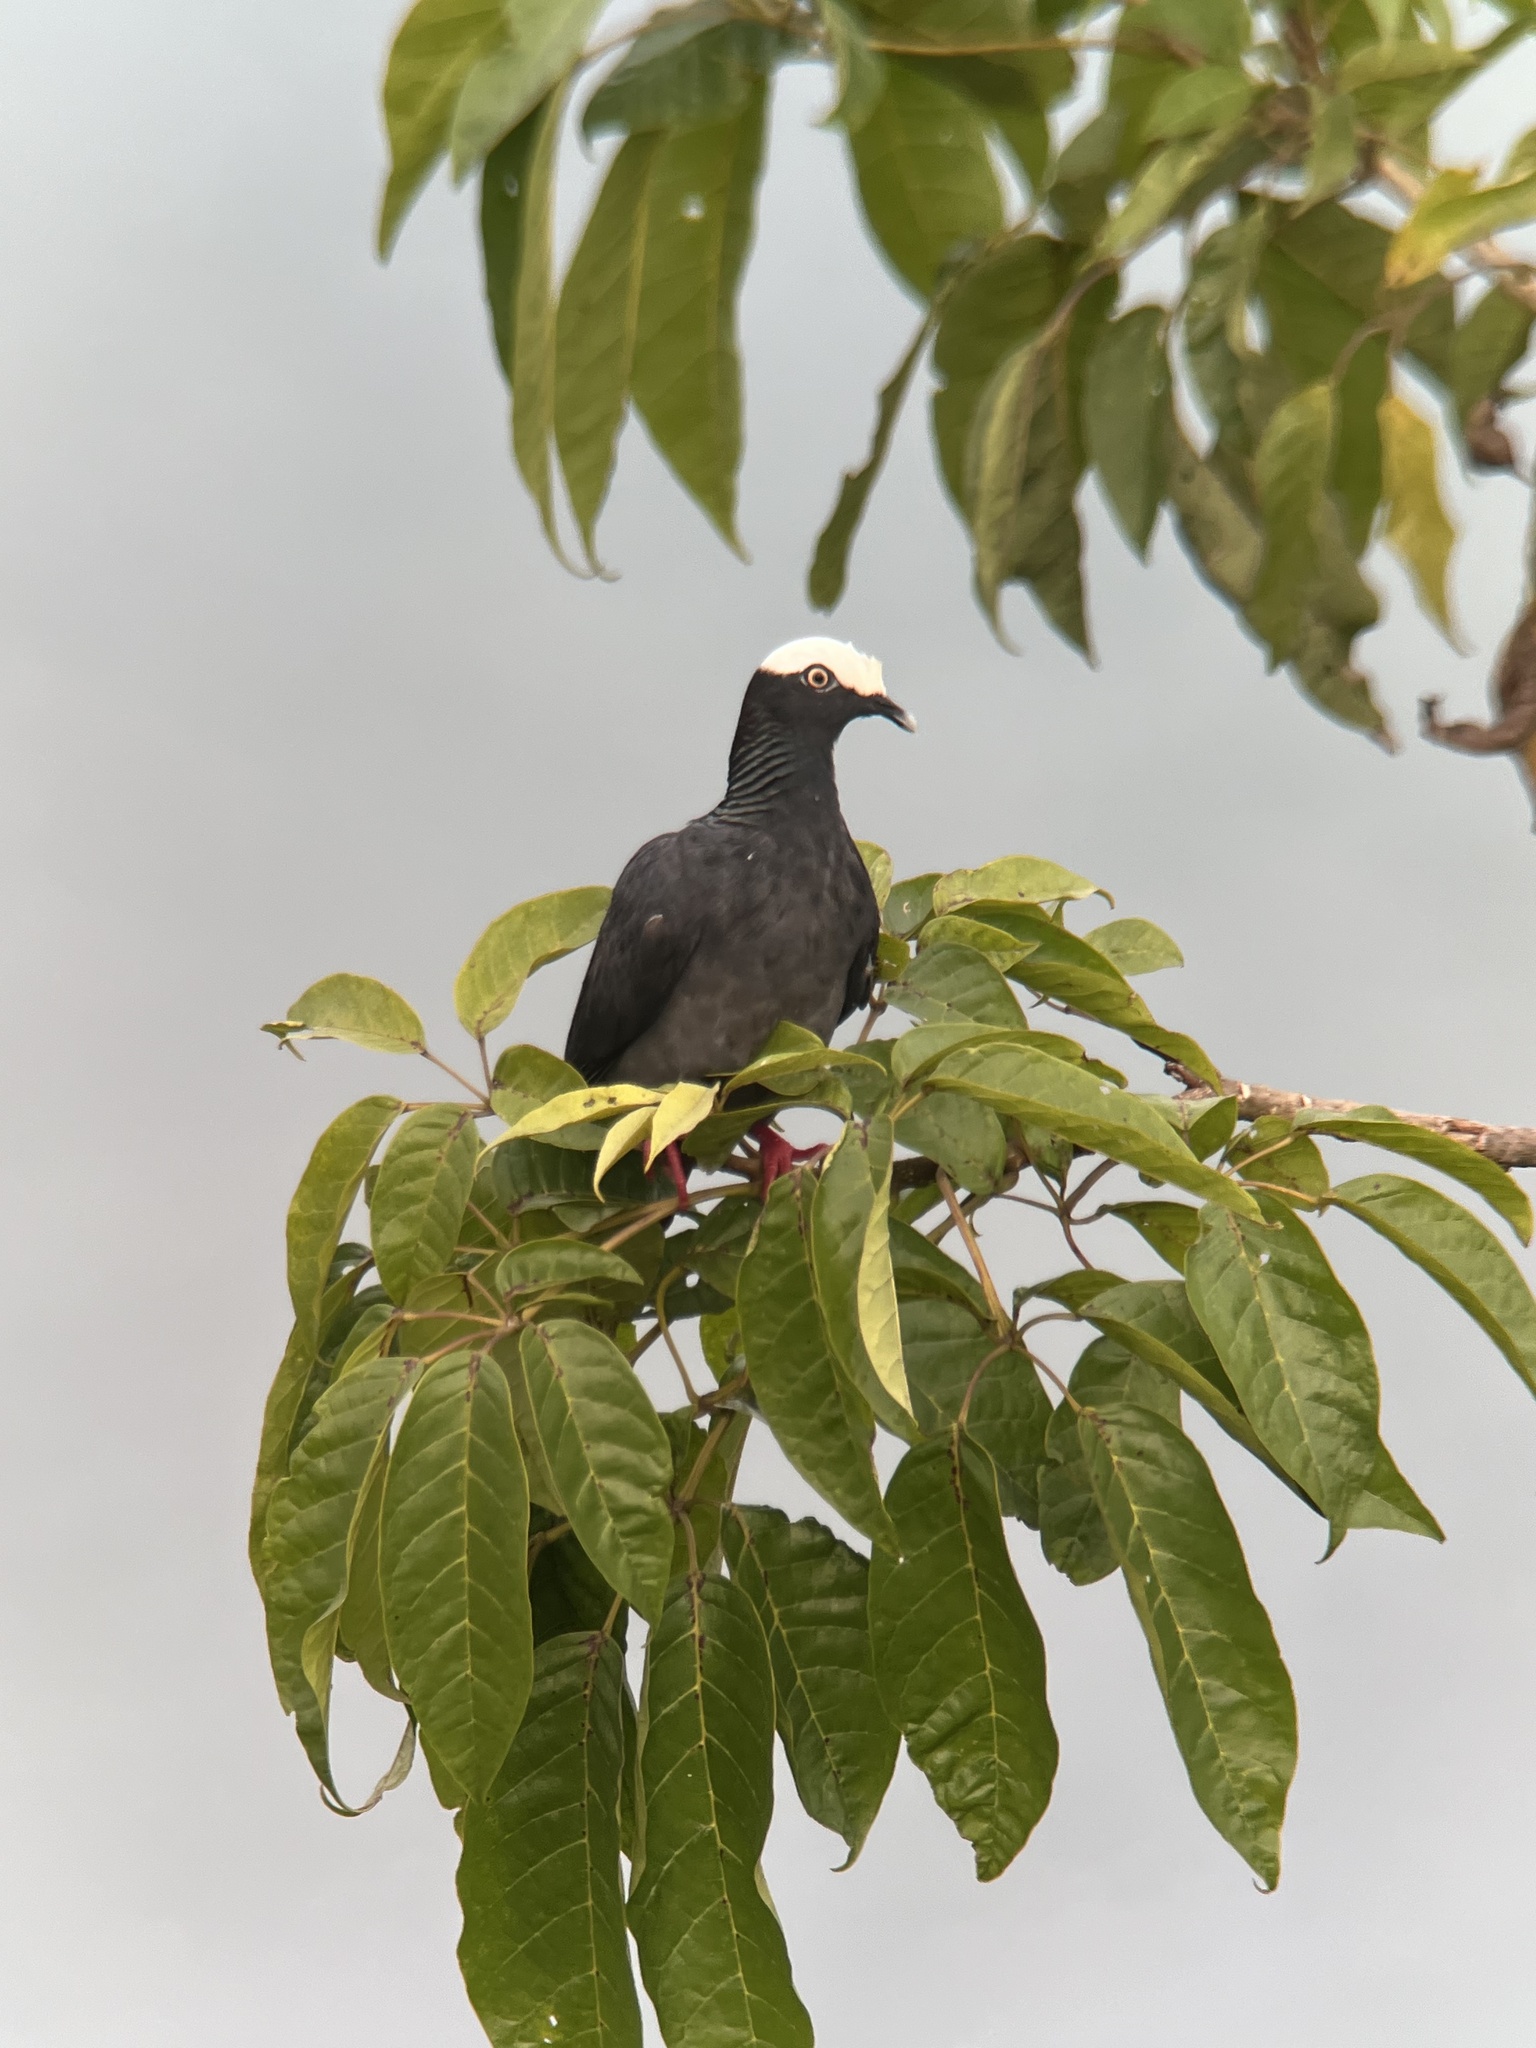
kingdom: Animalia
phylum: Chordata
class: Aves
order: Columbiformes
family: Columbidae
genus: Patagioenas
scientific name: Patagioenas leucocephala
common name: White-crowned pigeon
